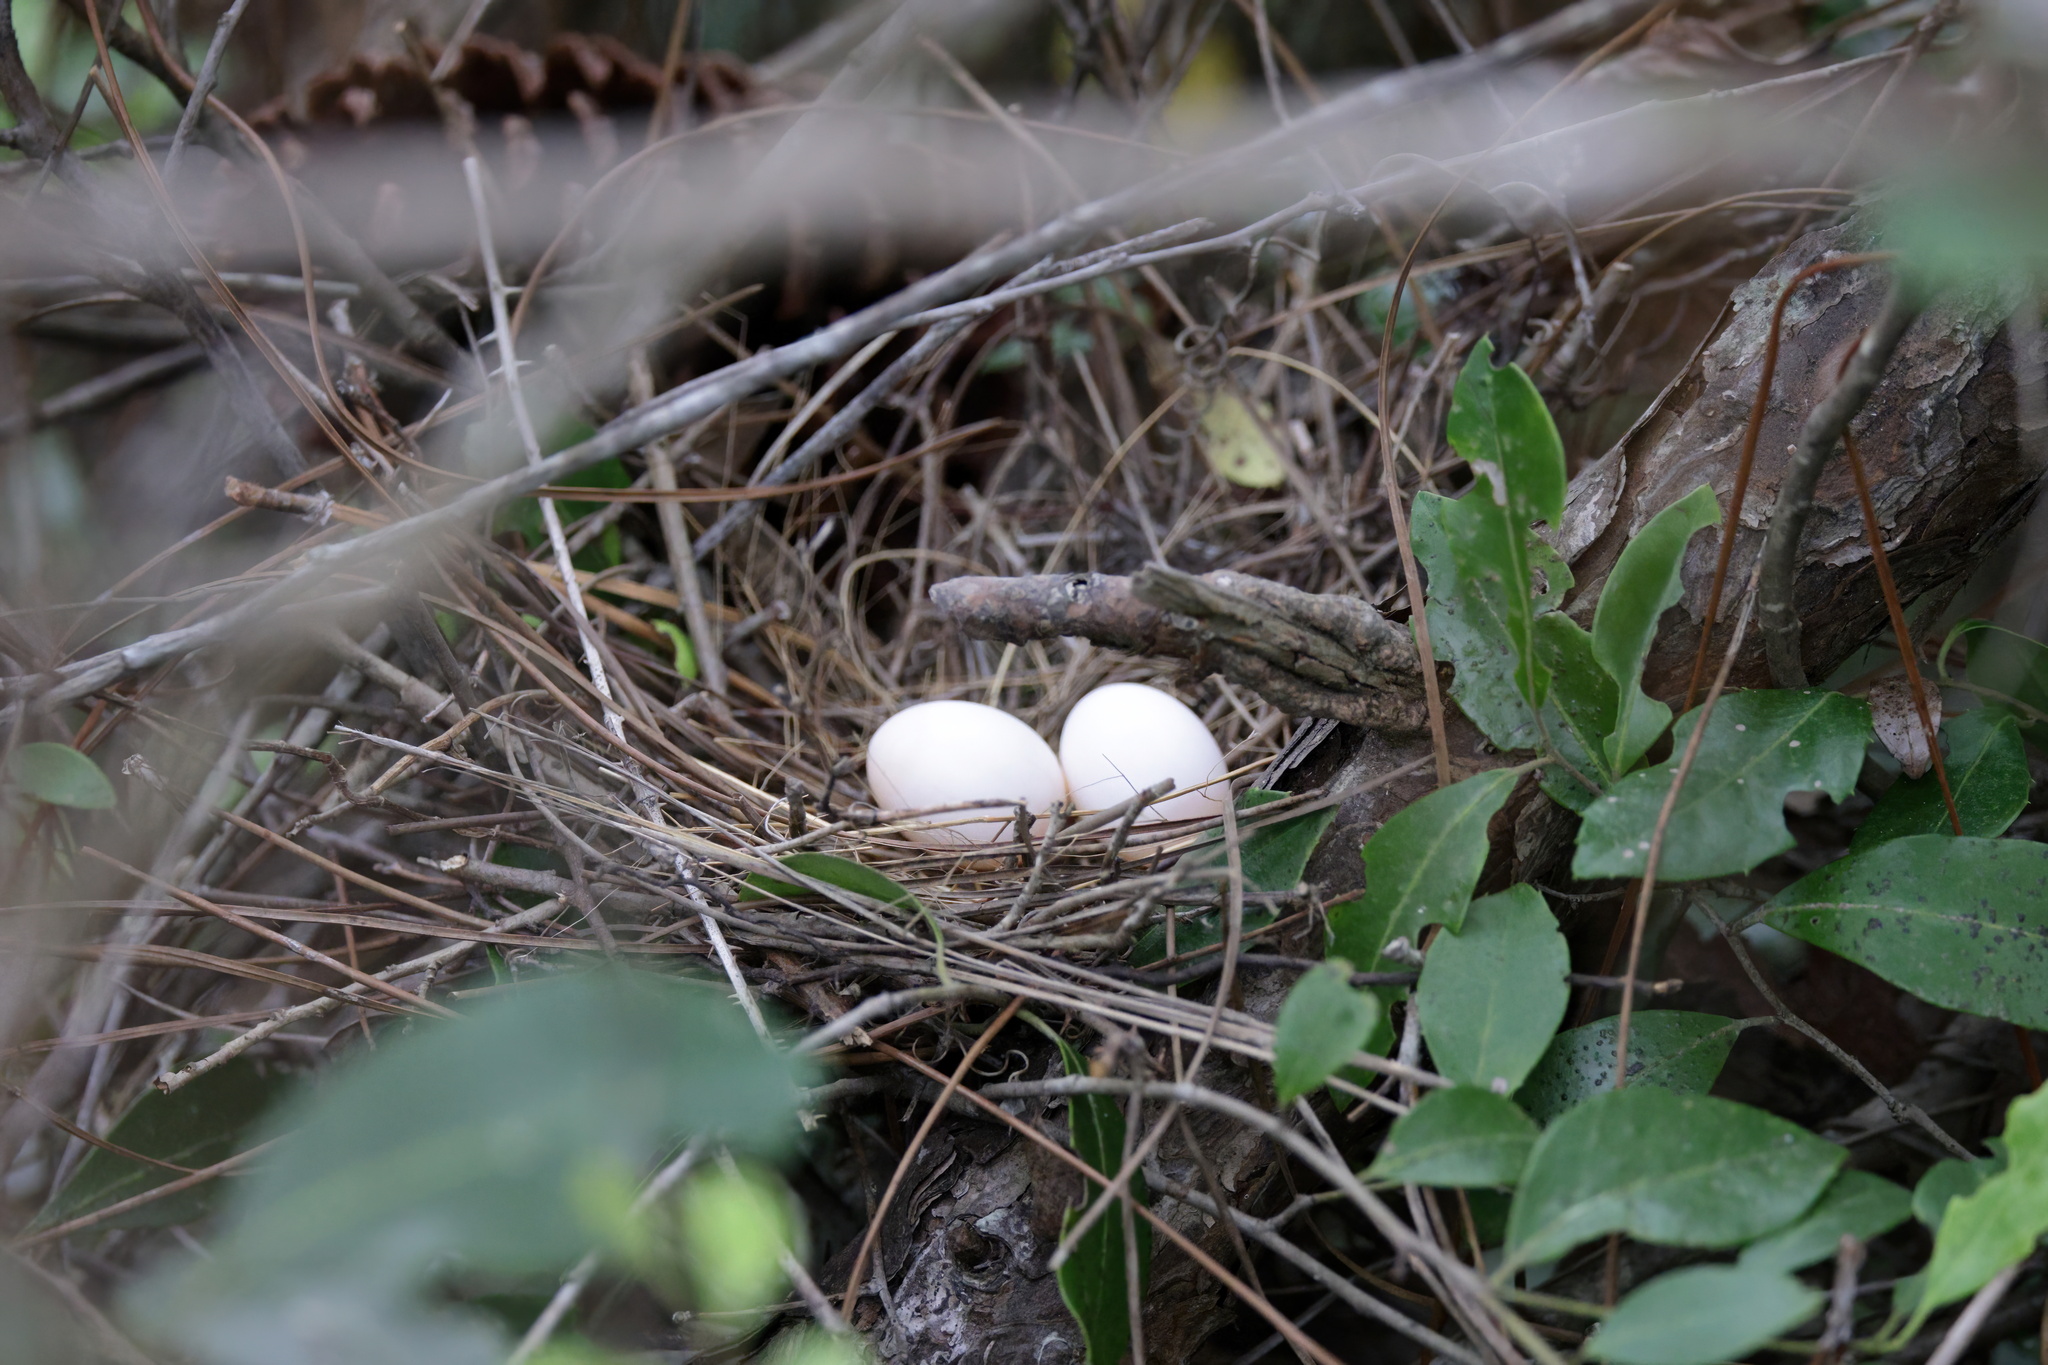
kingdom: Animalia
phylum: Chordata
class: Aves
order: Columbiformes
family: Columbidae
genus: Zenaida
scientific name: Zenaida macroura
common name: Mourning dove
